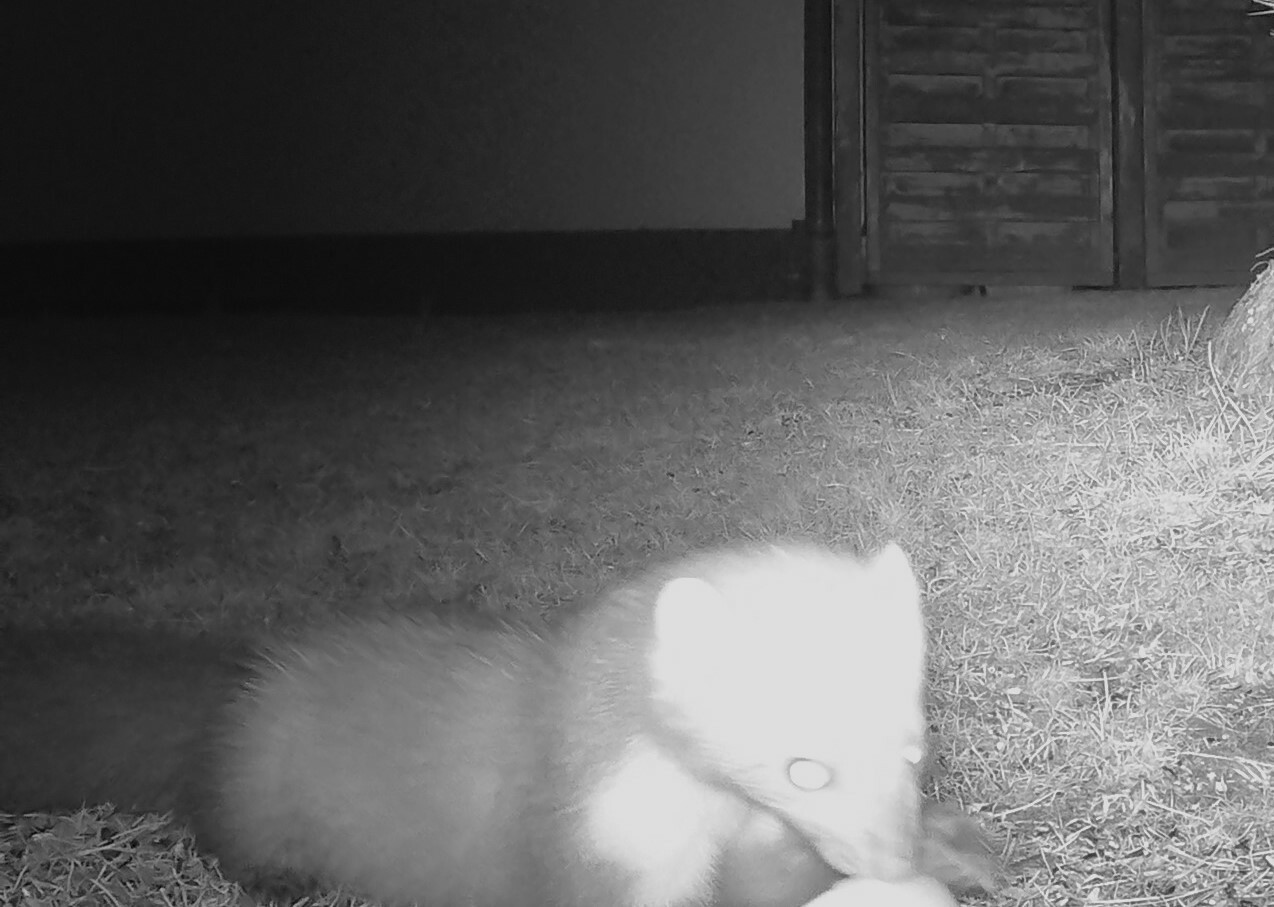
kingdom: Animalia
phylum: Chordata
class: Mammalia
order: Carnivora
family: Mustelidae
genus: Martes
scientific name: Martes foina
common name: Beech marten
